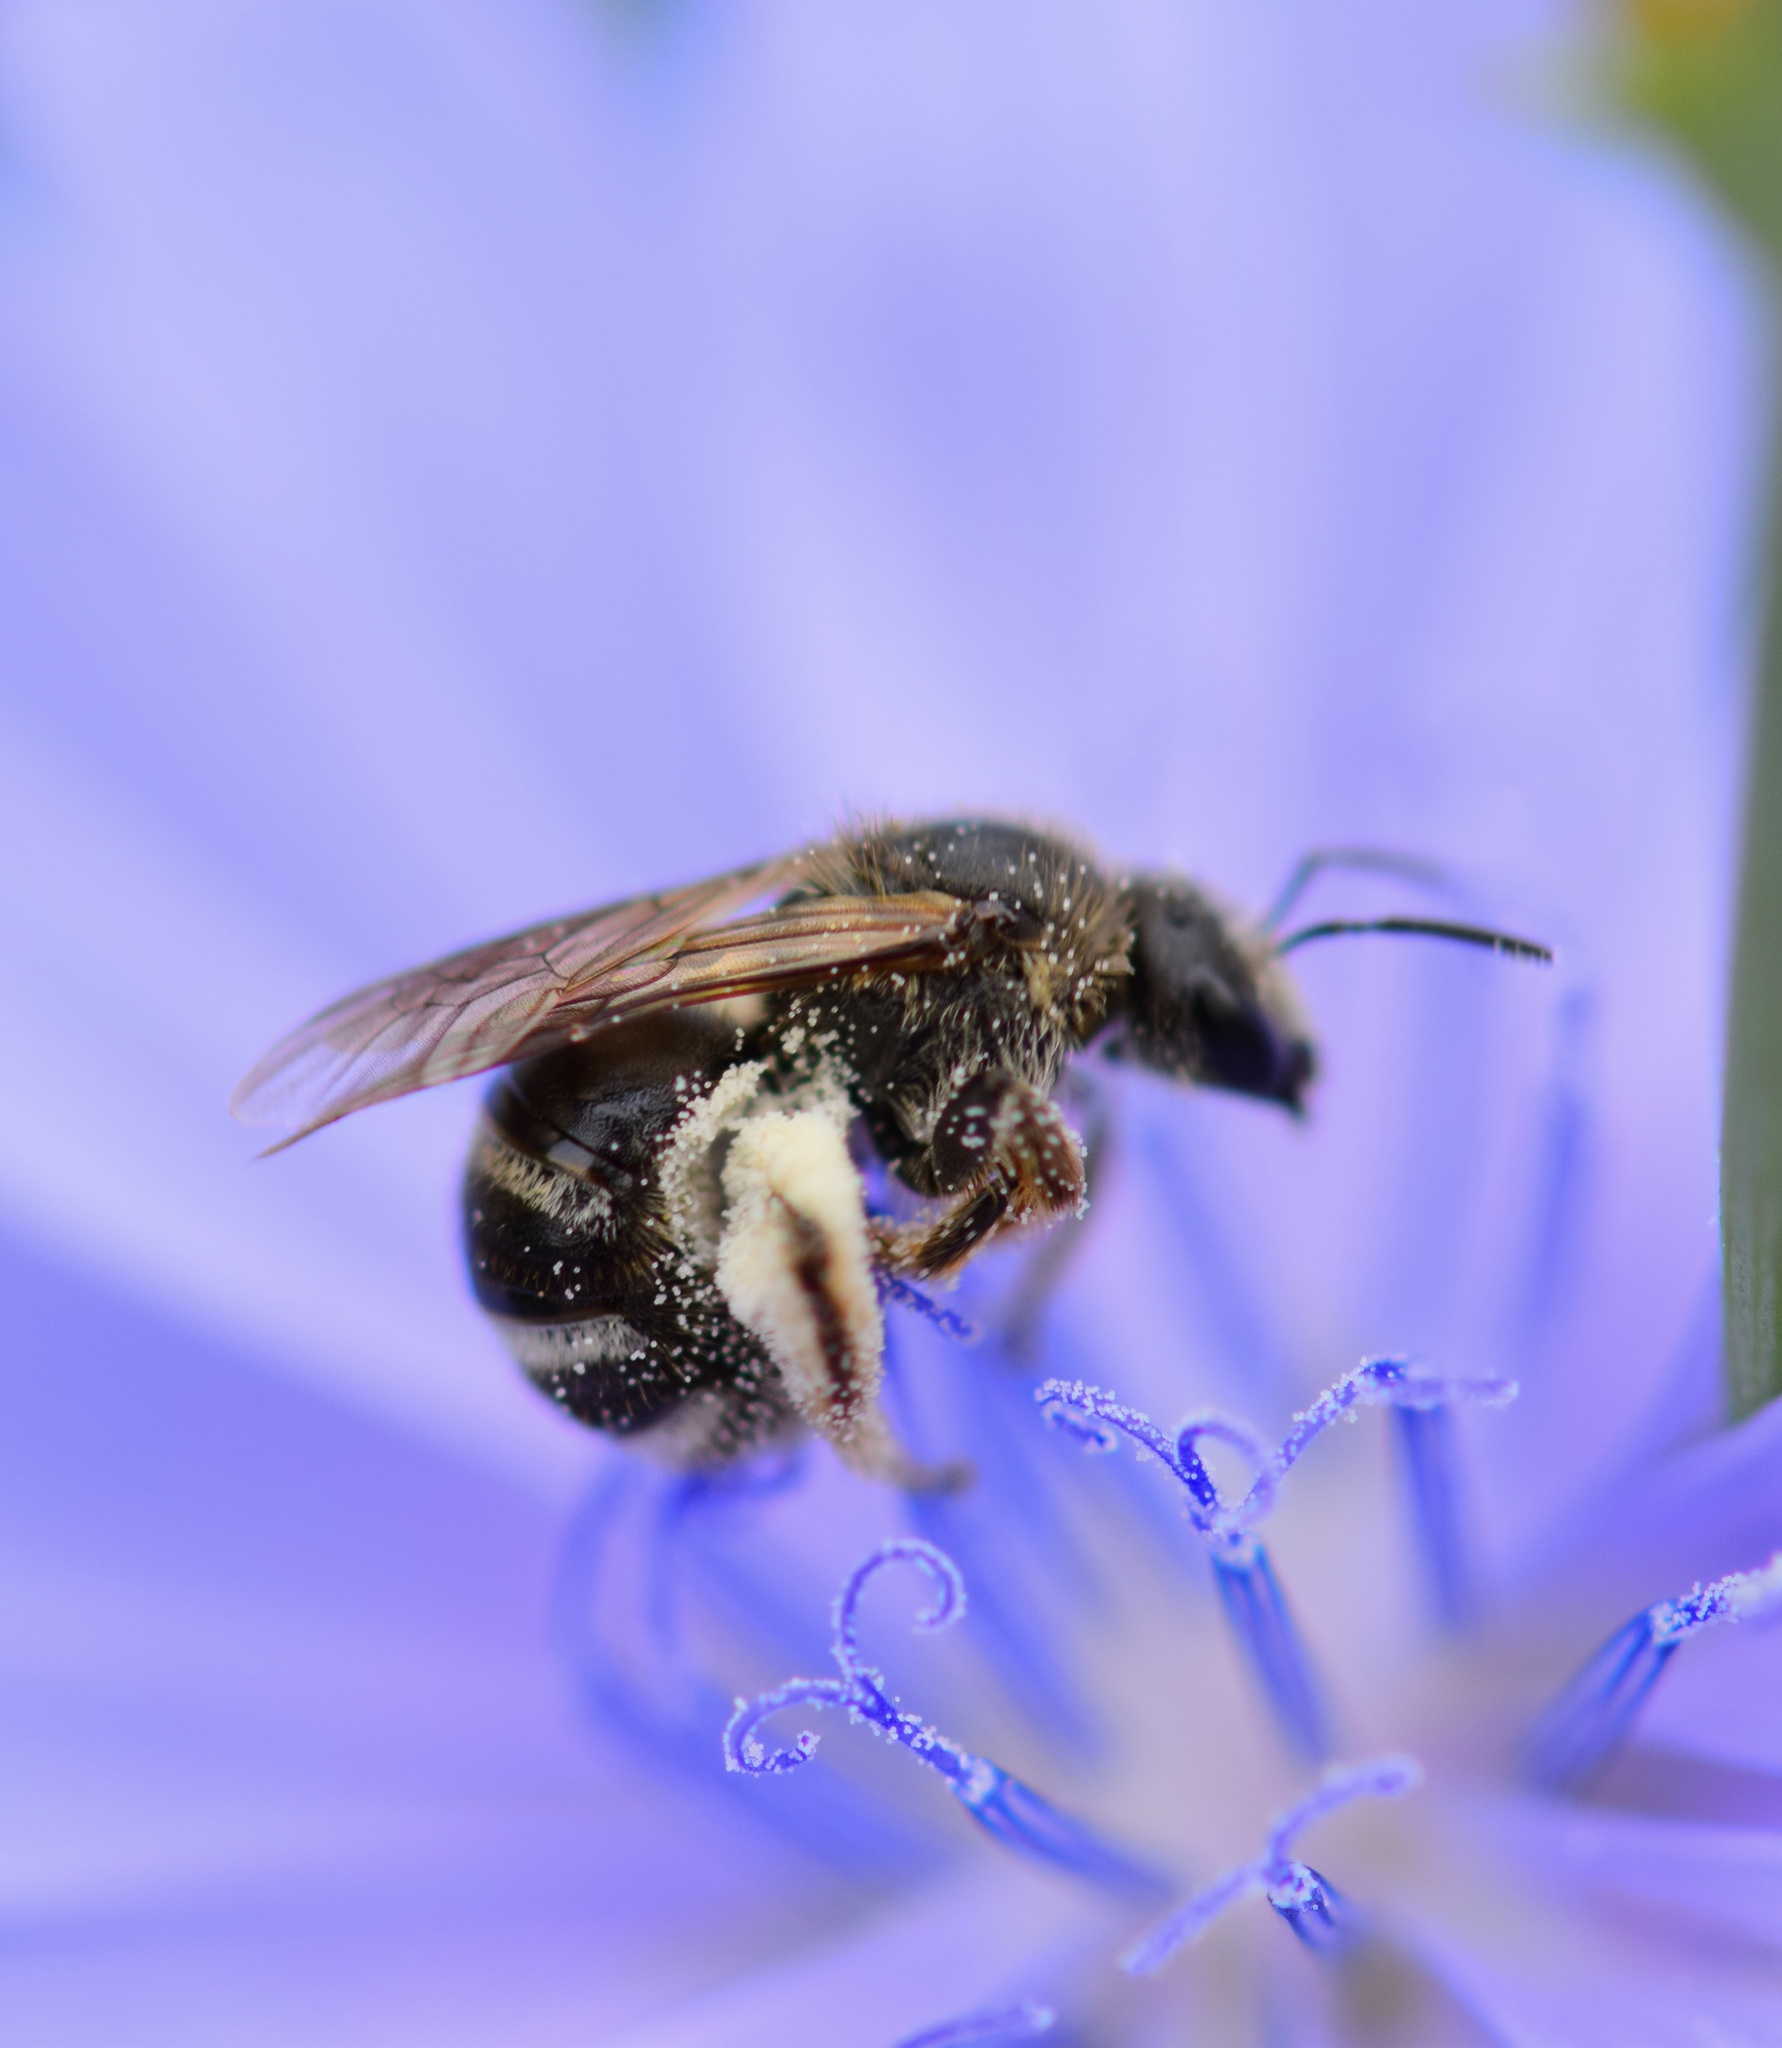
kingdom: Animalia
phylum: Arthropoda
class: Insecta
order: Hymenoptera
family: Halictidae
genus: Lasioglossum
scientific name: Lasioglossum leucozonium
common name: White-zoned furrow bee
